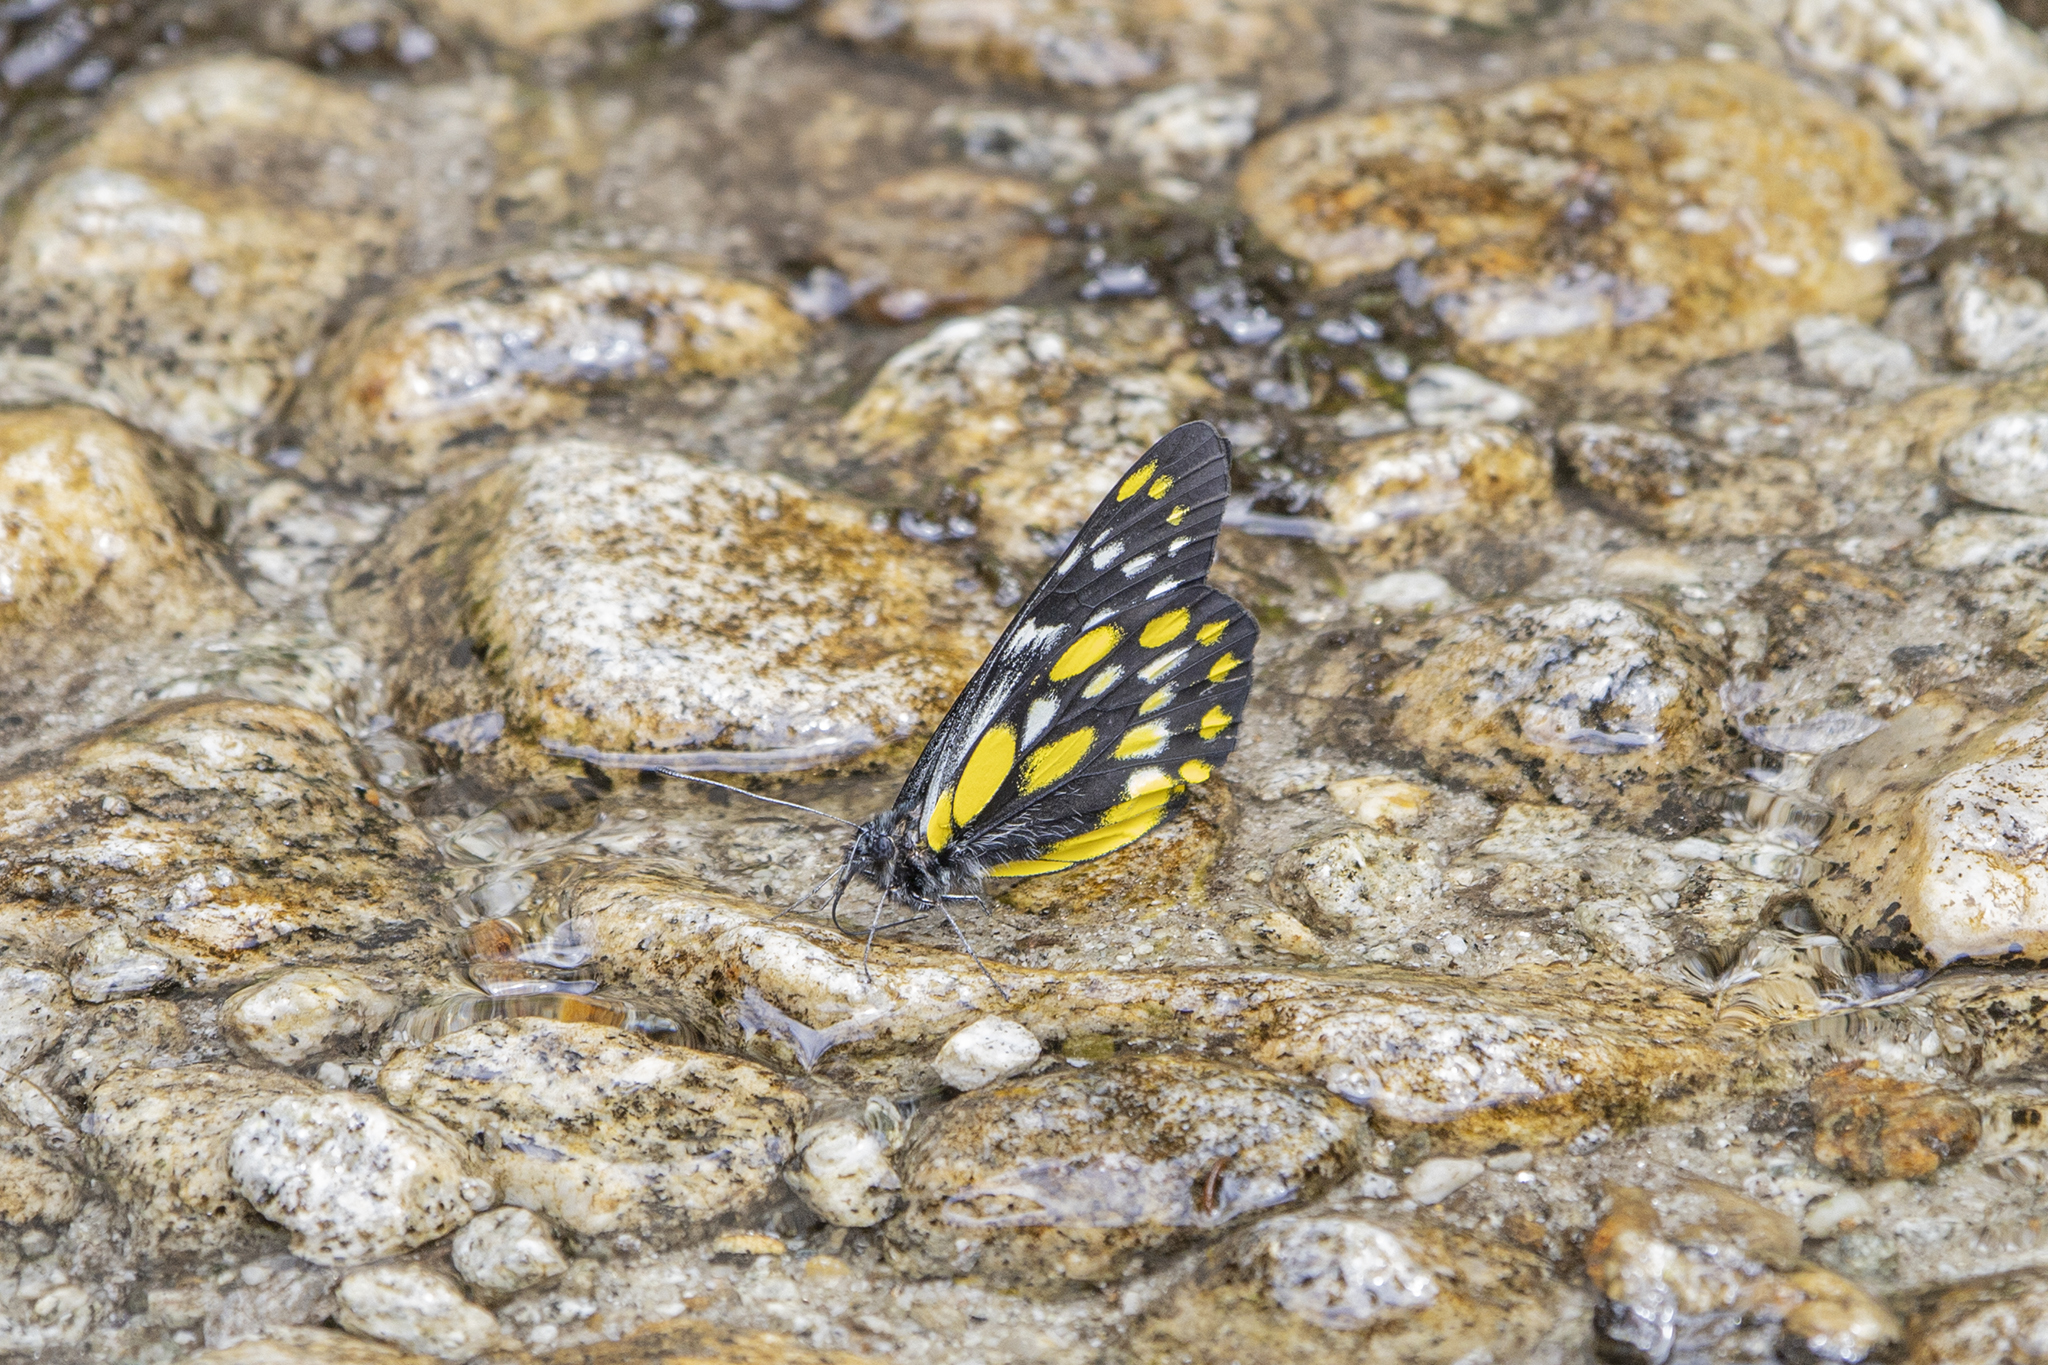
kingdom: Animalia
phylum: Arthropoda
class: Insecta
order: Lepidoptera
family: Pieridae
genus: Delias
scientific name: Delias belladonna
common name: Hill jezebel
